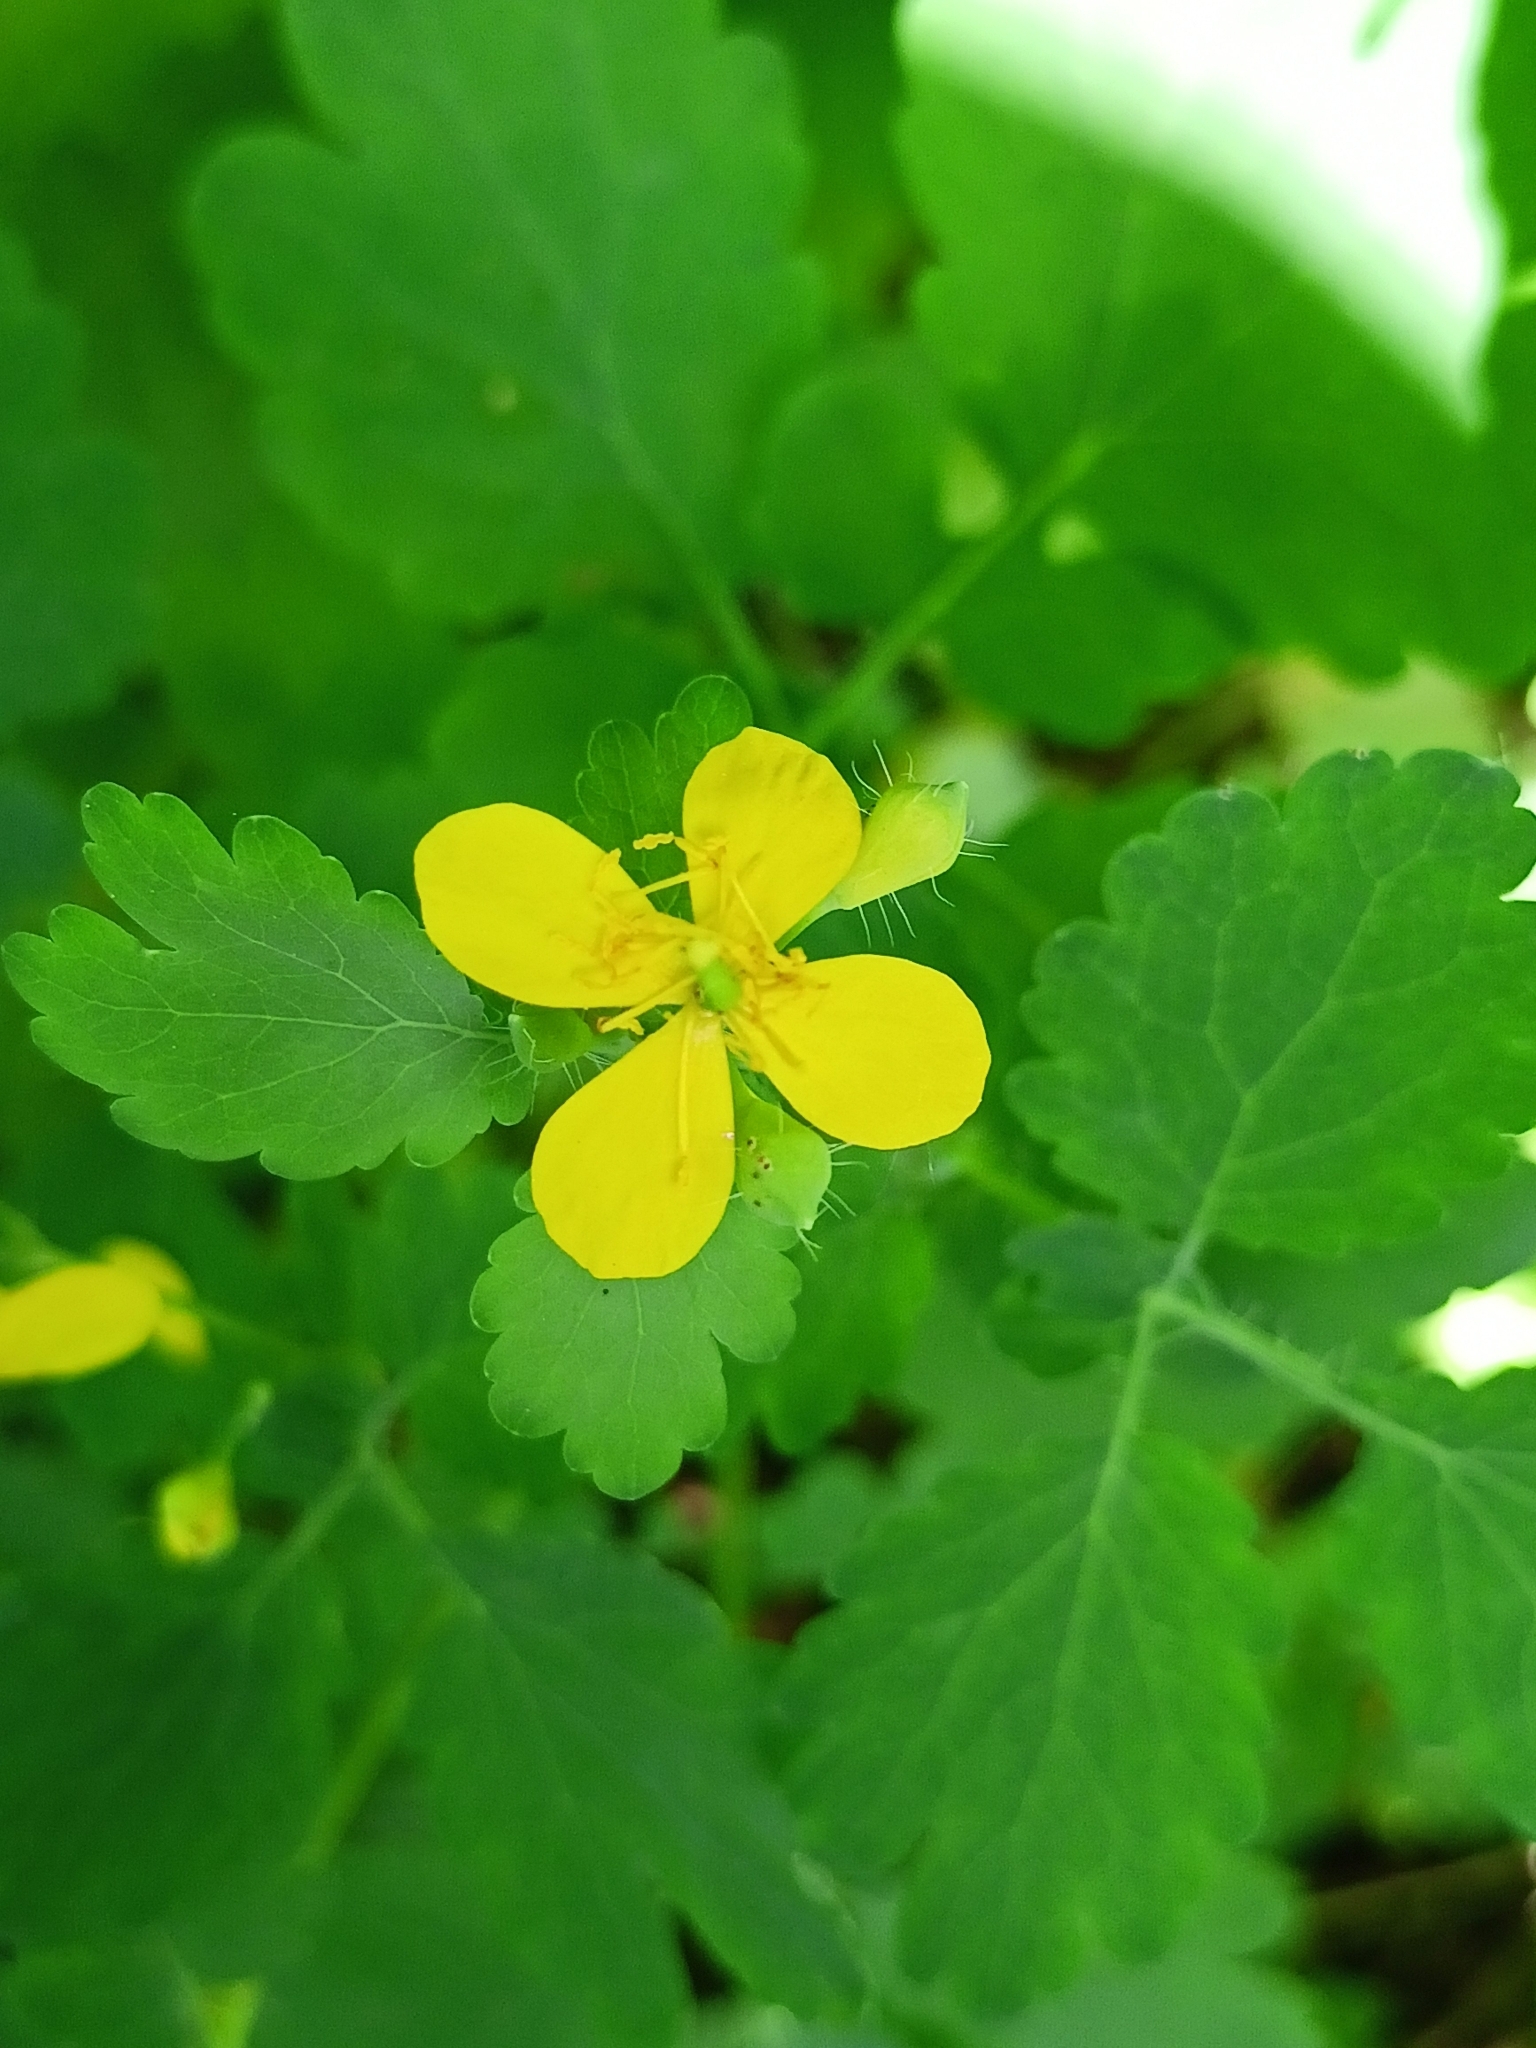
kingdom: Plantae
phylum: Tracheophyta
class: Magnoliopsida
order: Ranunculales
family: Papaveraceae
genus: Chelidonium
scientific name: Chelidonium majus
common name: Greater celandine
